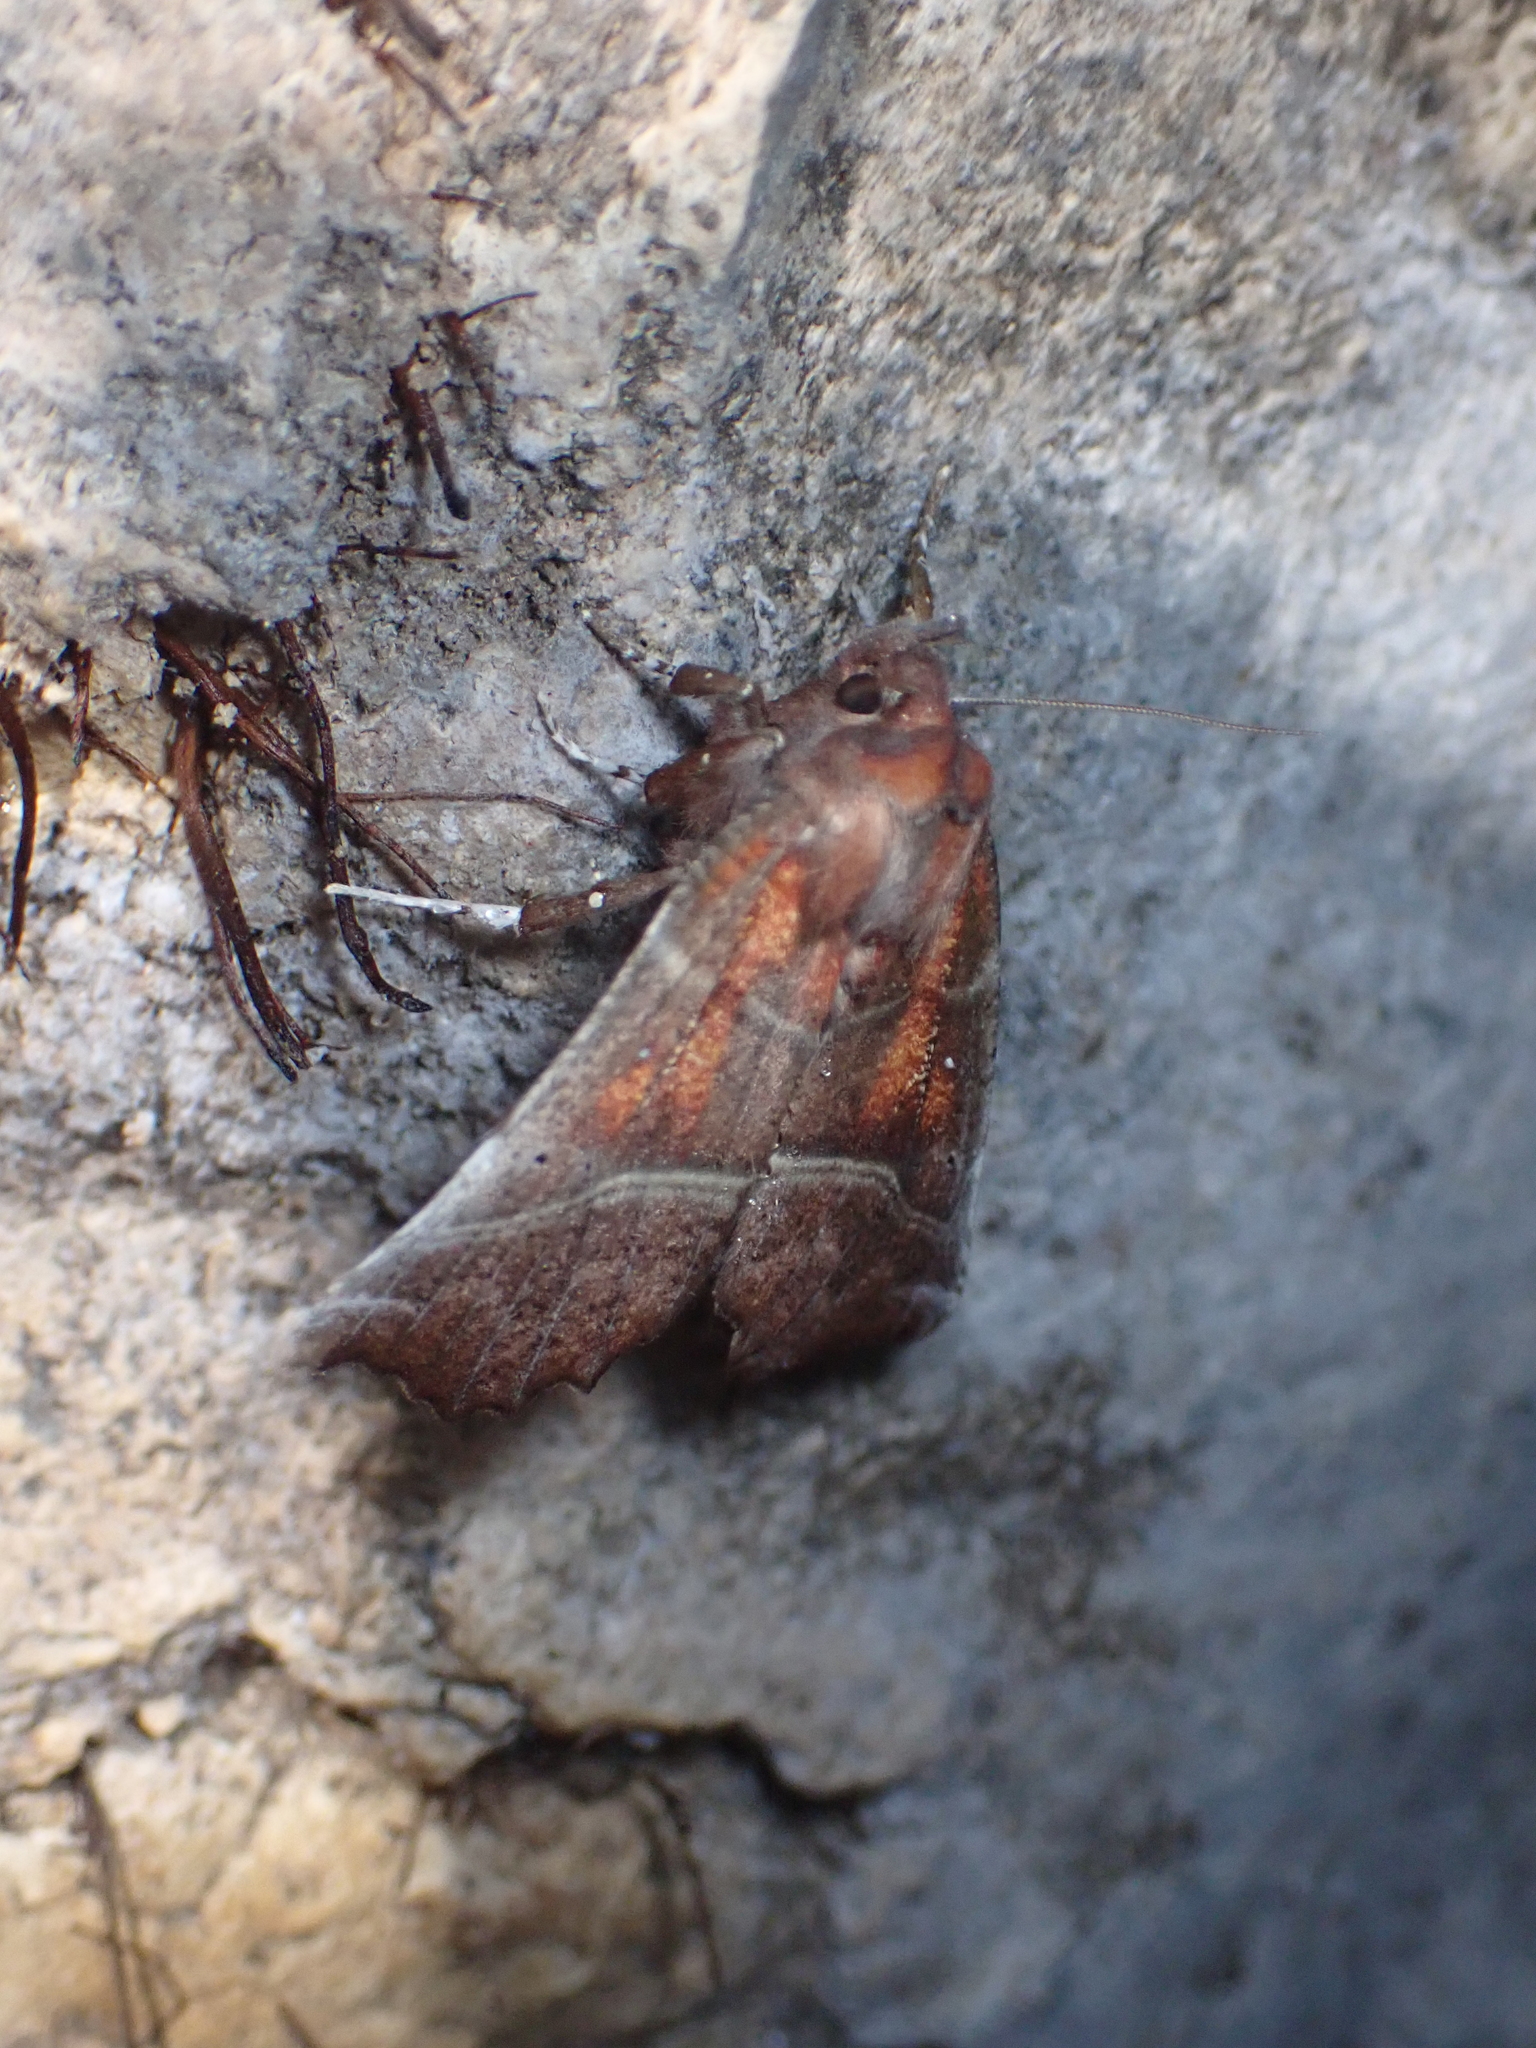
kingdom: Animalia
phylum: Arthropoda
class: Insecta
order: Lepidoptera
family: Erebidae
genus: Scoliopteryx
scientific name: Scoliopteryx libatrix
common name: Herald
